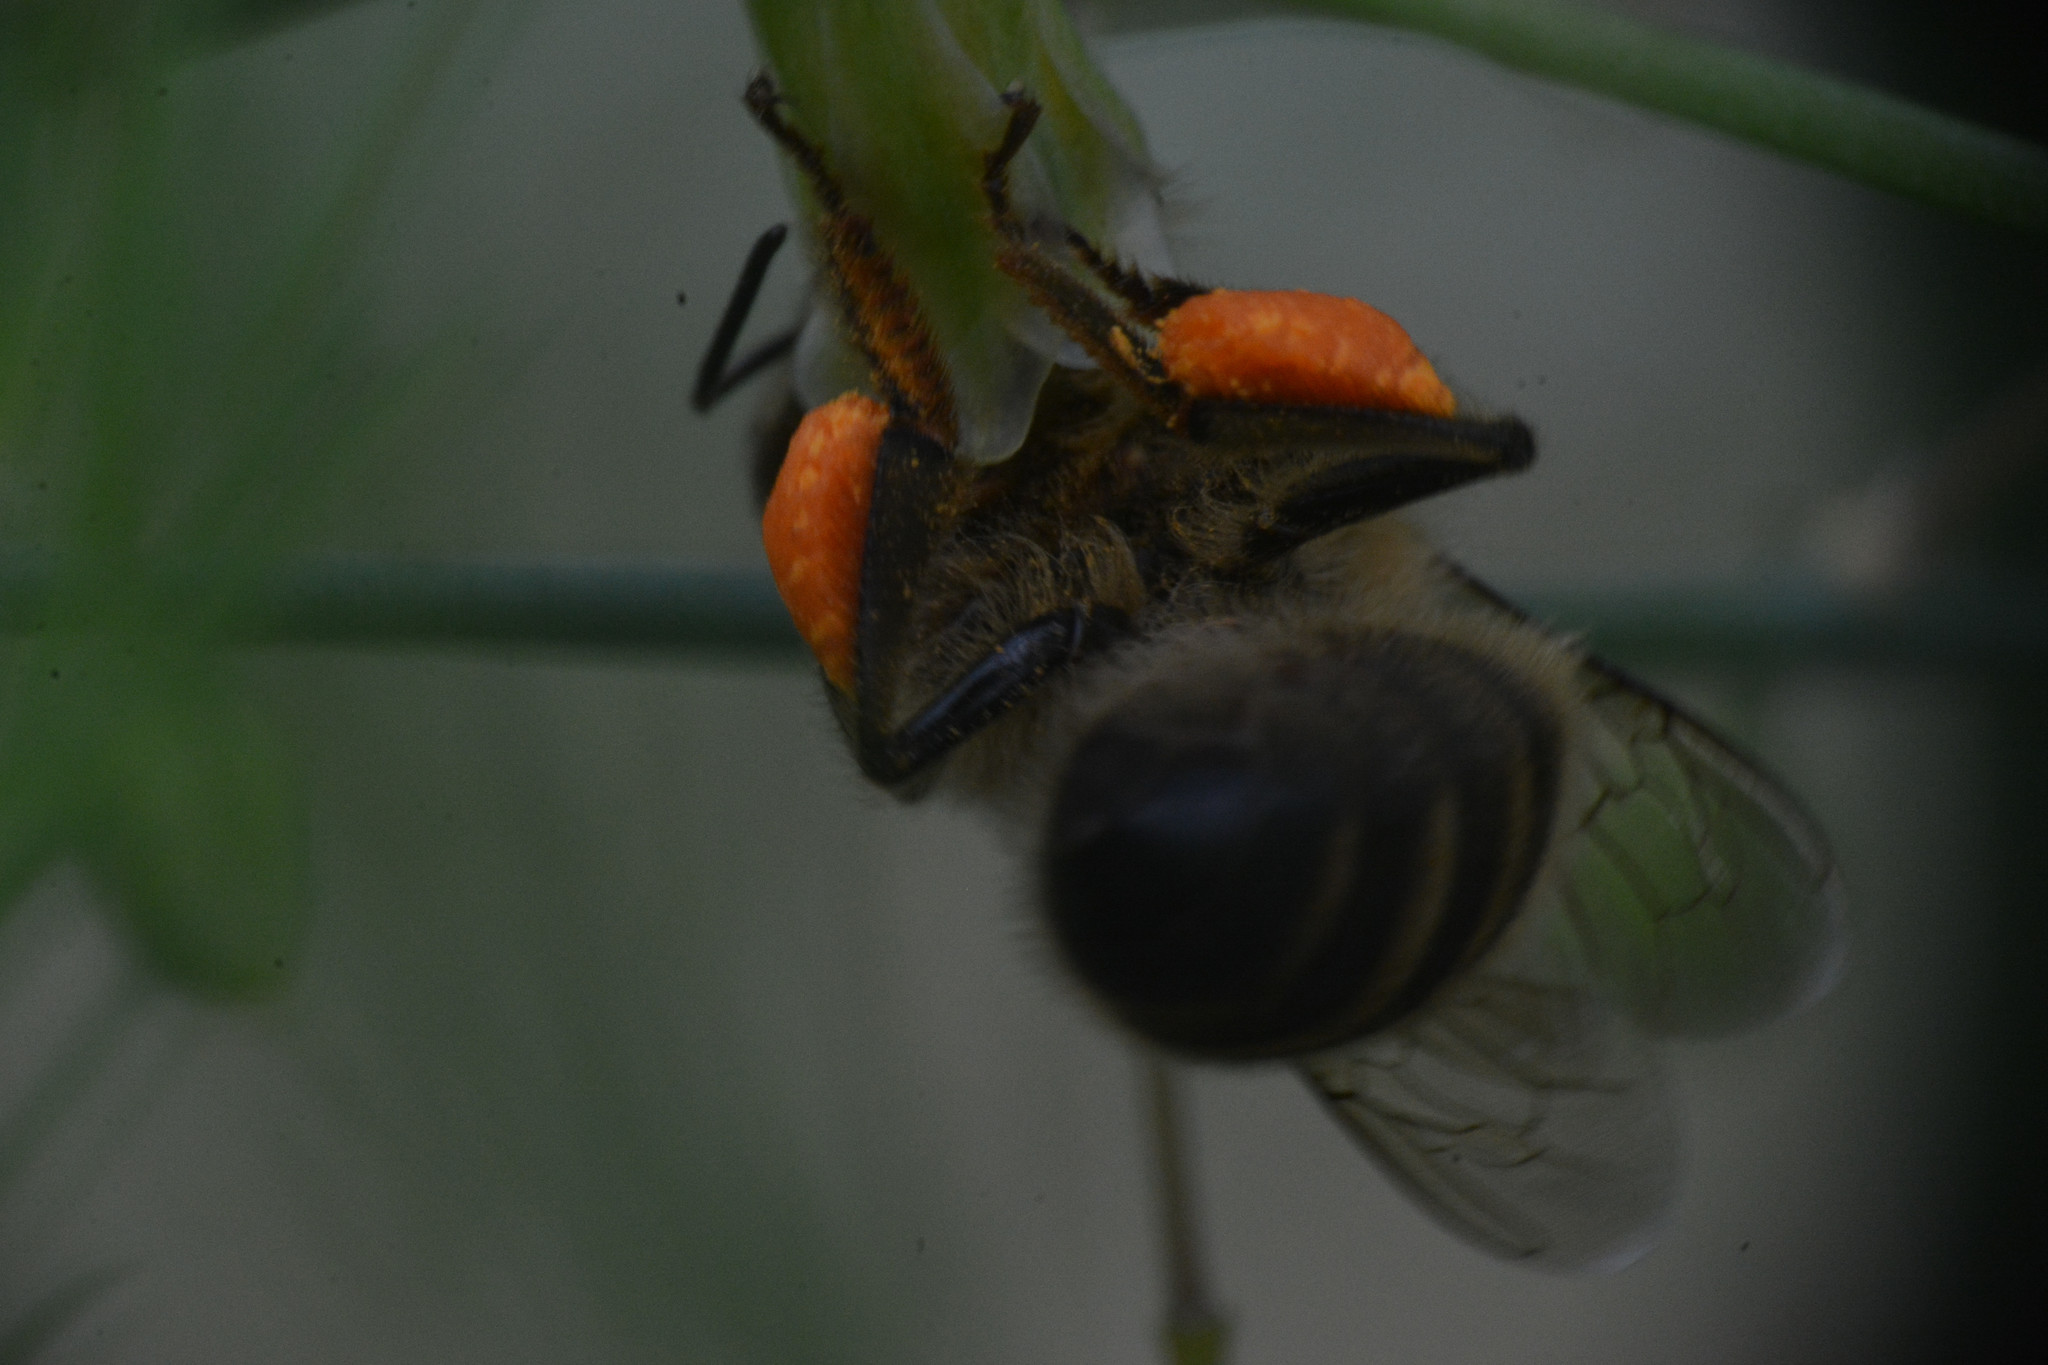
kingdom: Animalia
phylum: Arthropoda
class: Insecta
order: Hymenoptera
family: Apidae
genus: Apis
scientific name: Apis mellifera
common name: Honey bee
